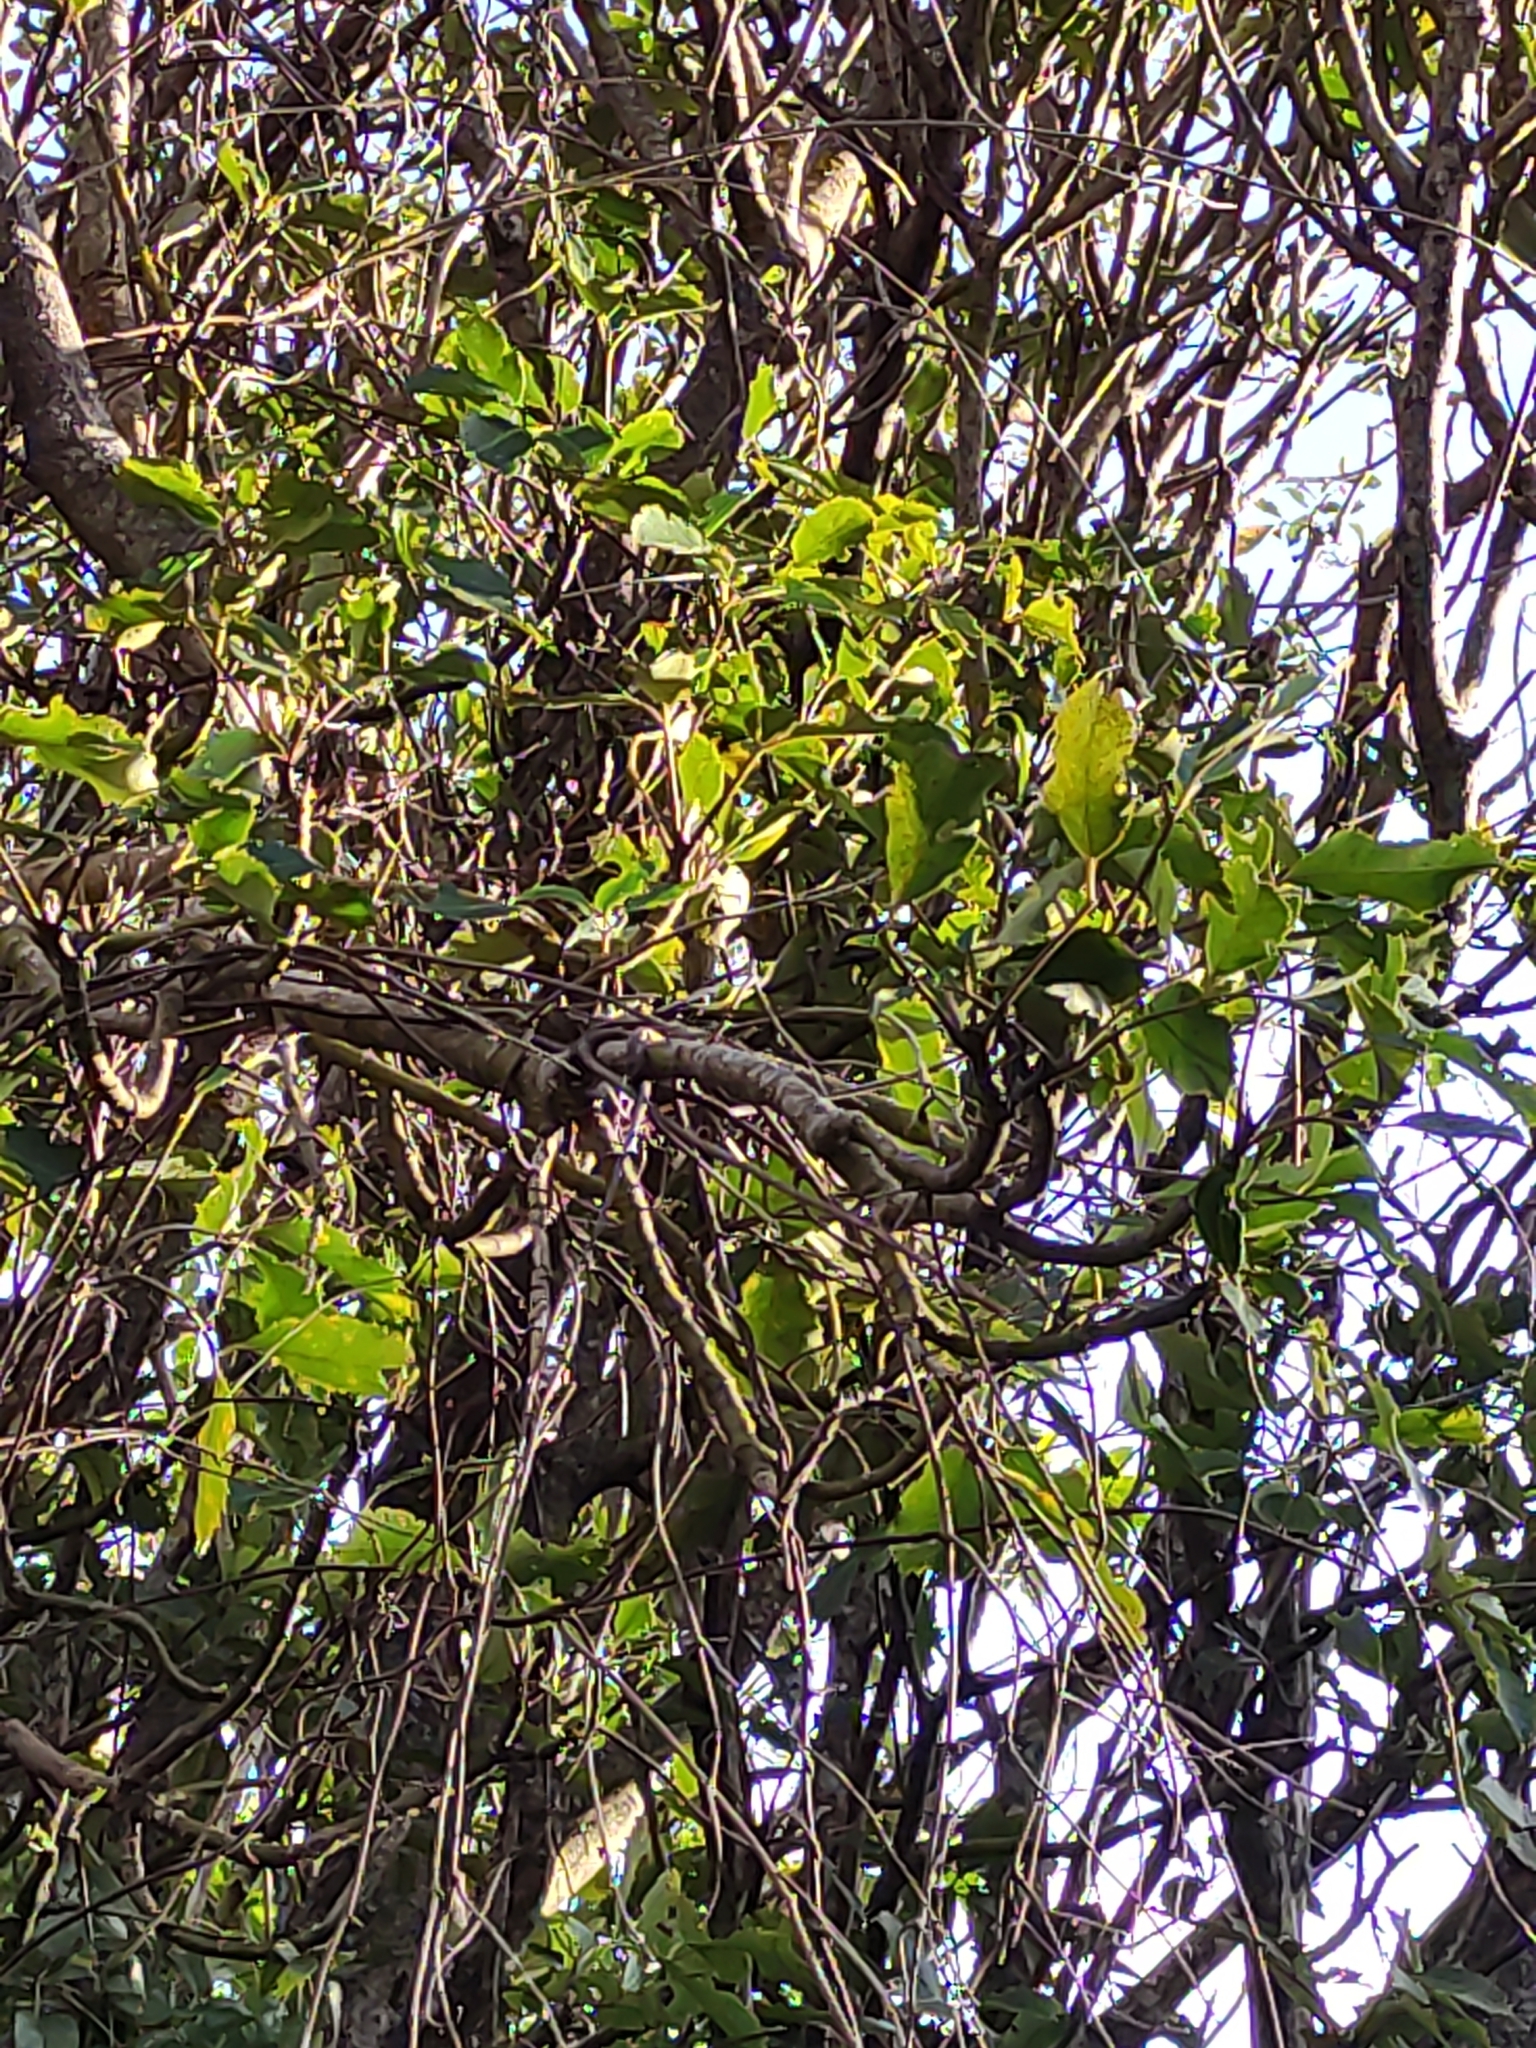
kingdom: Plantae
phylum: Tracheophyta
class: Magnoliopsida
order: Lamiales
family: Scrophulariaceae
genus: Myoporum
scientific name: Myoporum laetum
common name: Ngaio tree
